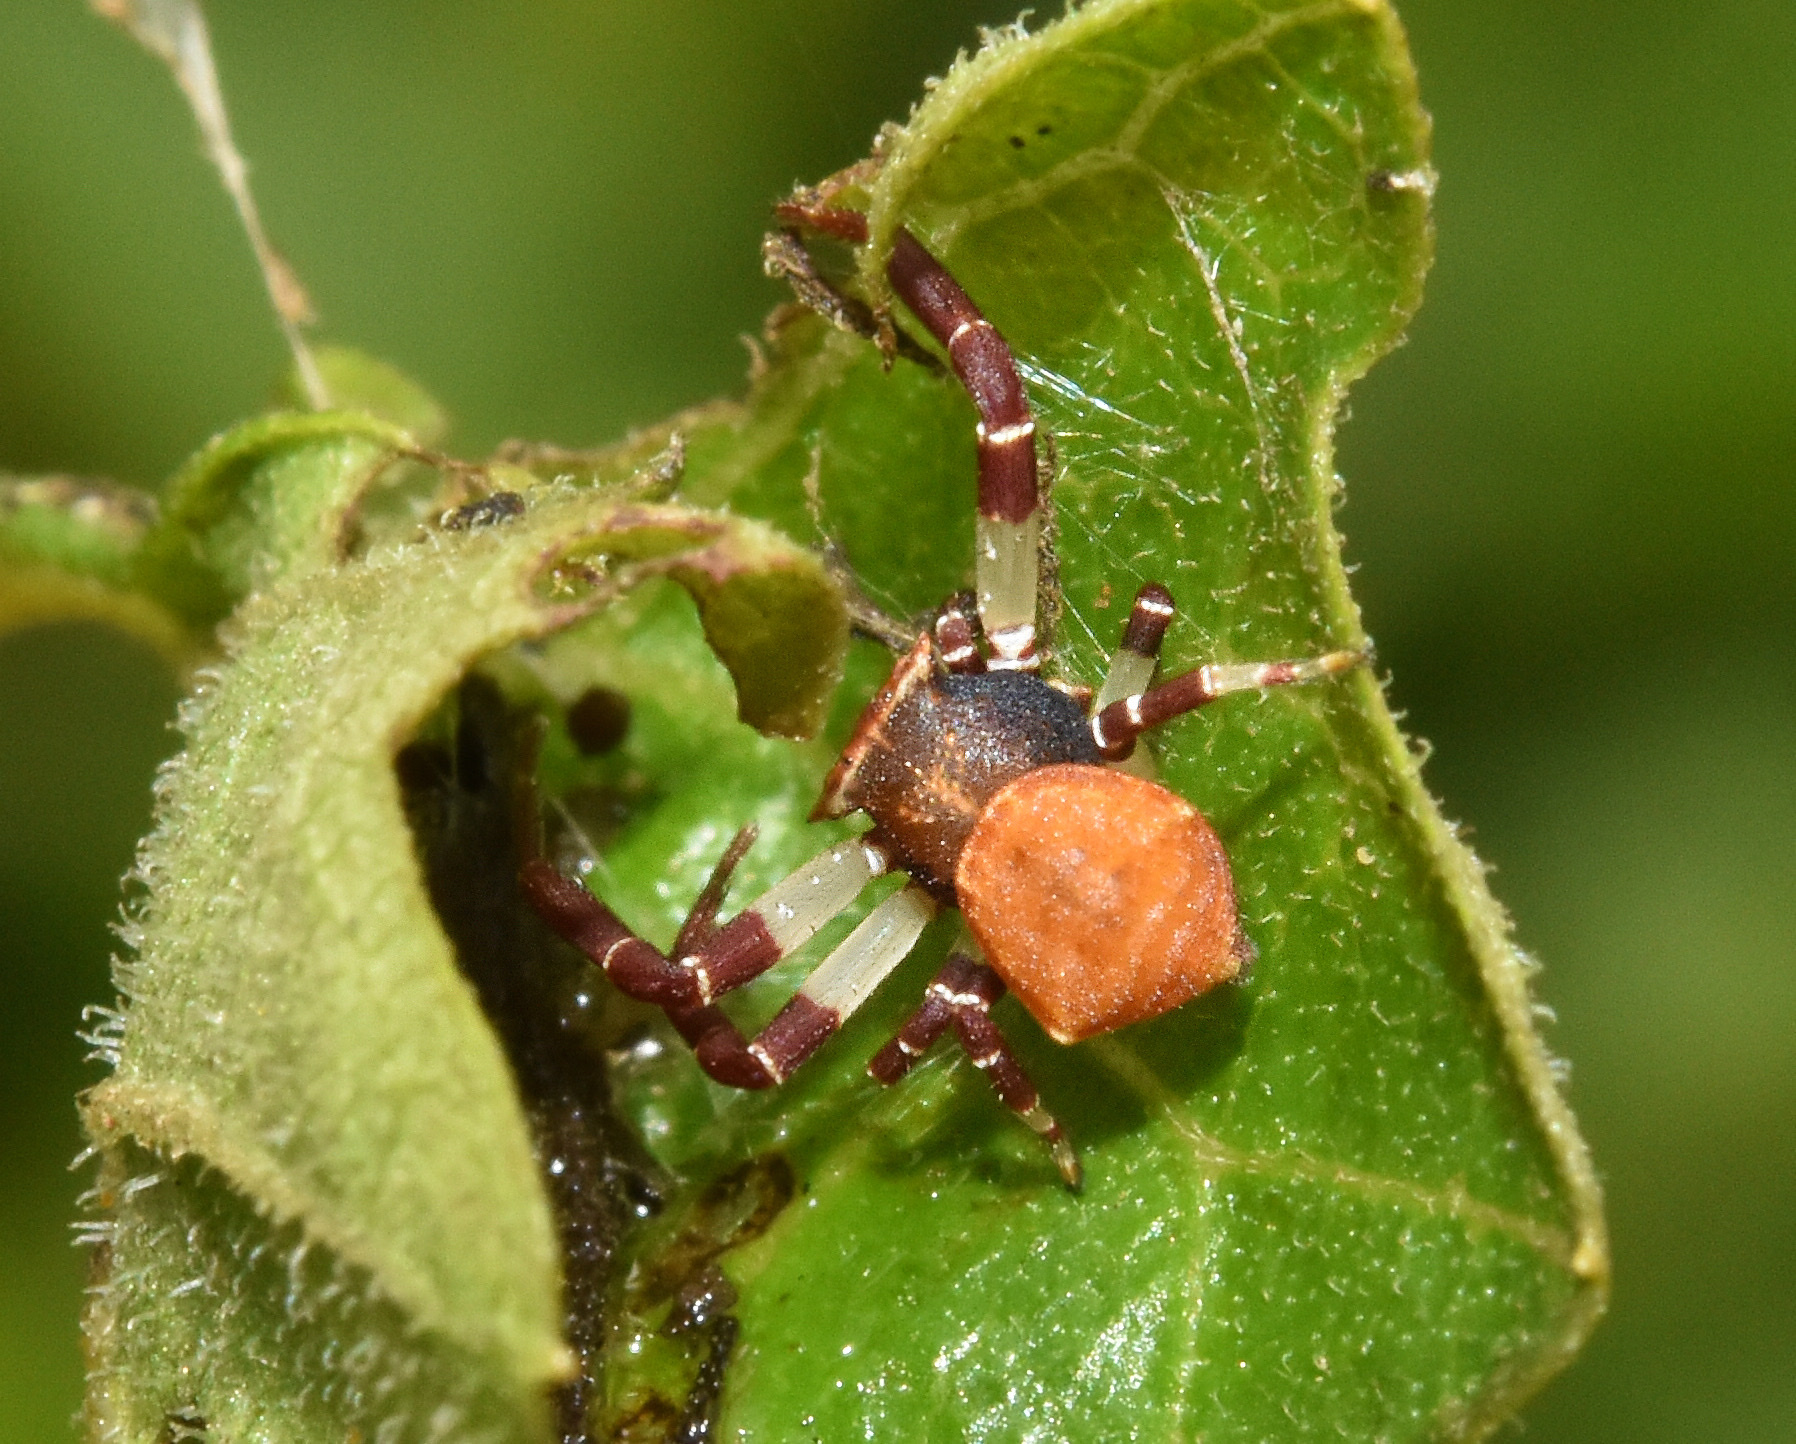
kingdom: Animalia
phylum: Arthropoda
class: Arachnida
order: Araneae
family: Thomisidae
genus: Thomisus
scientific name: Thomisus blandus
